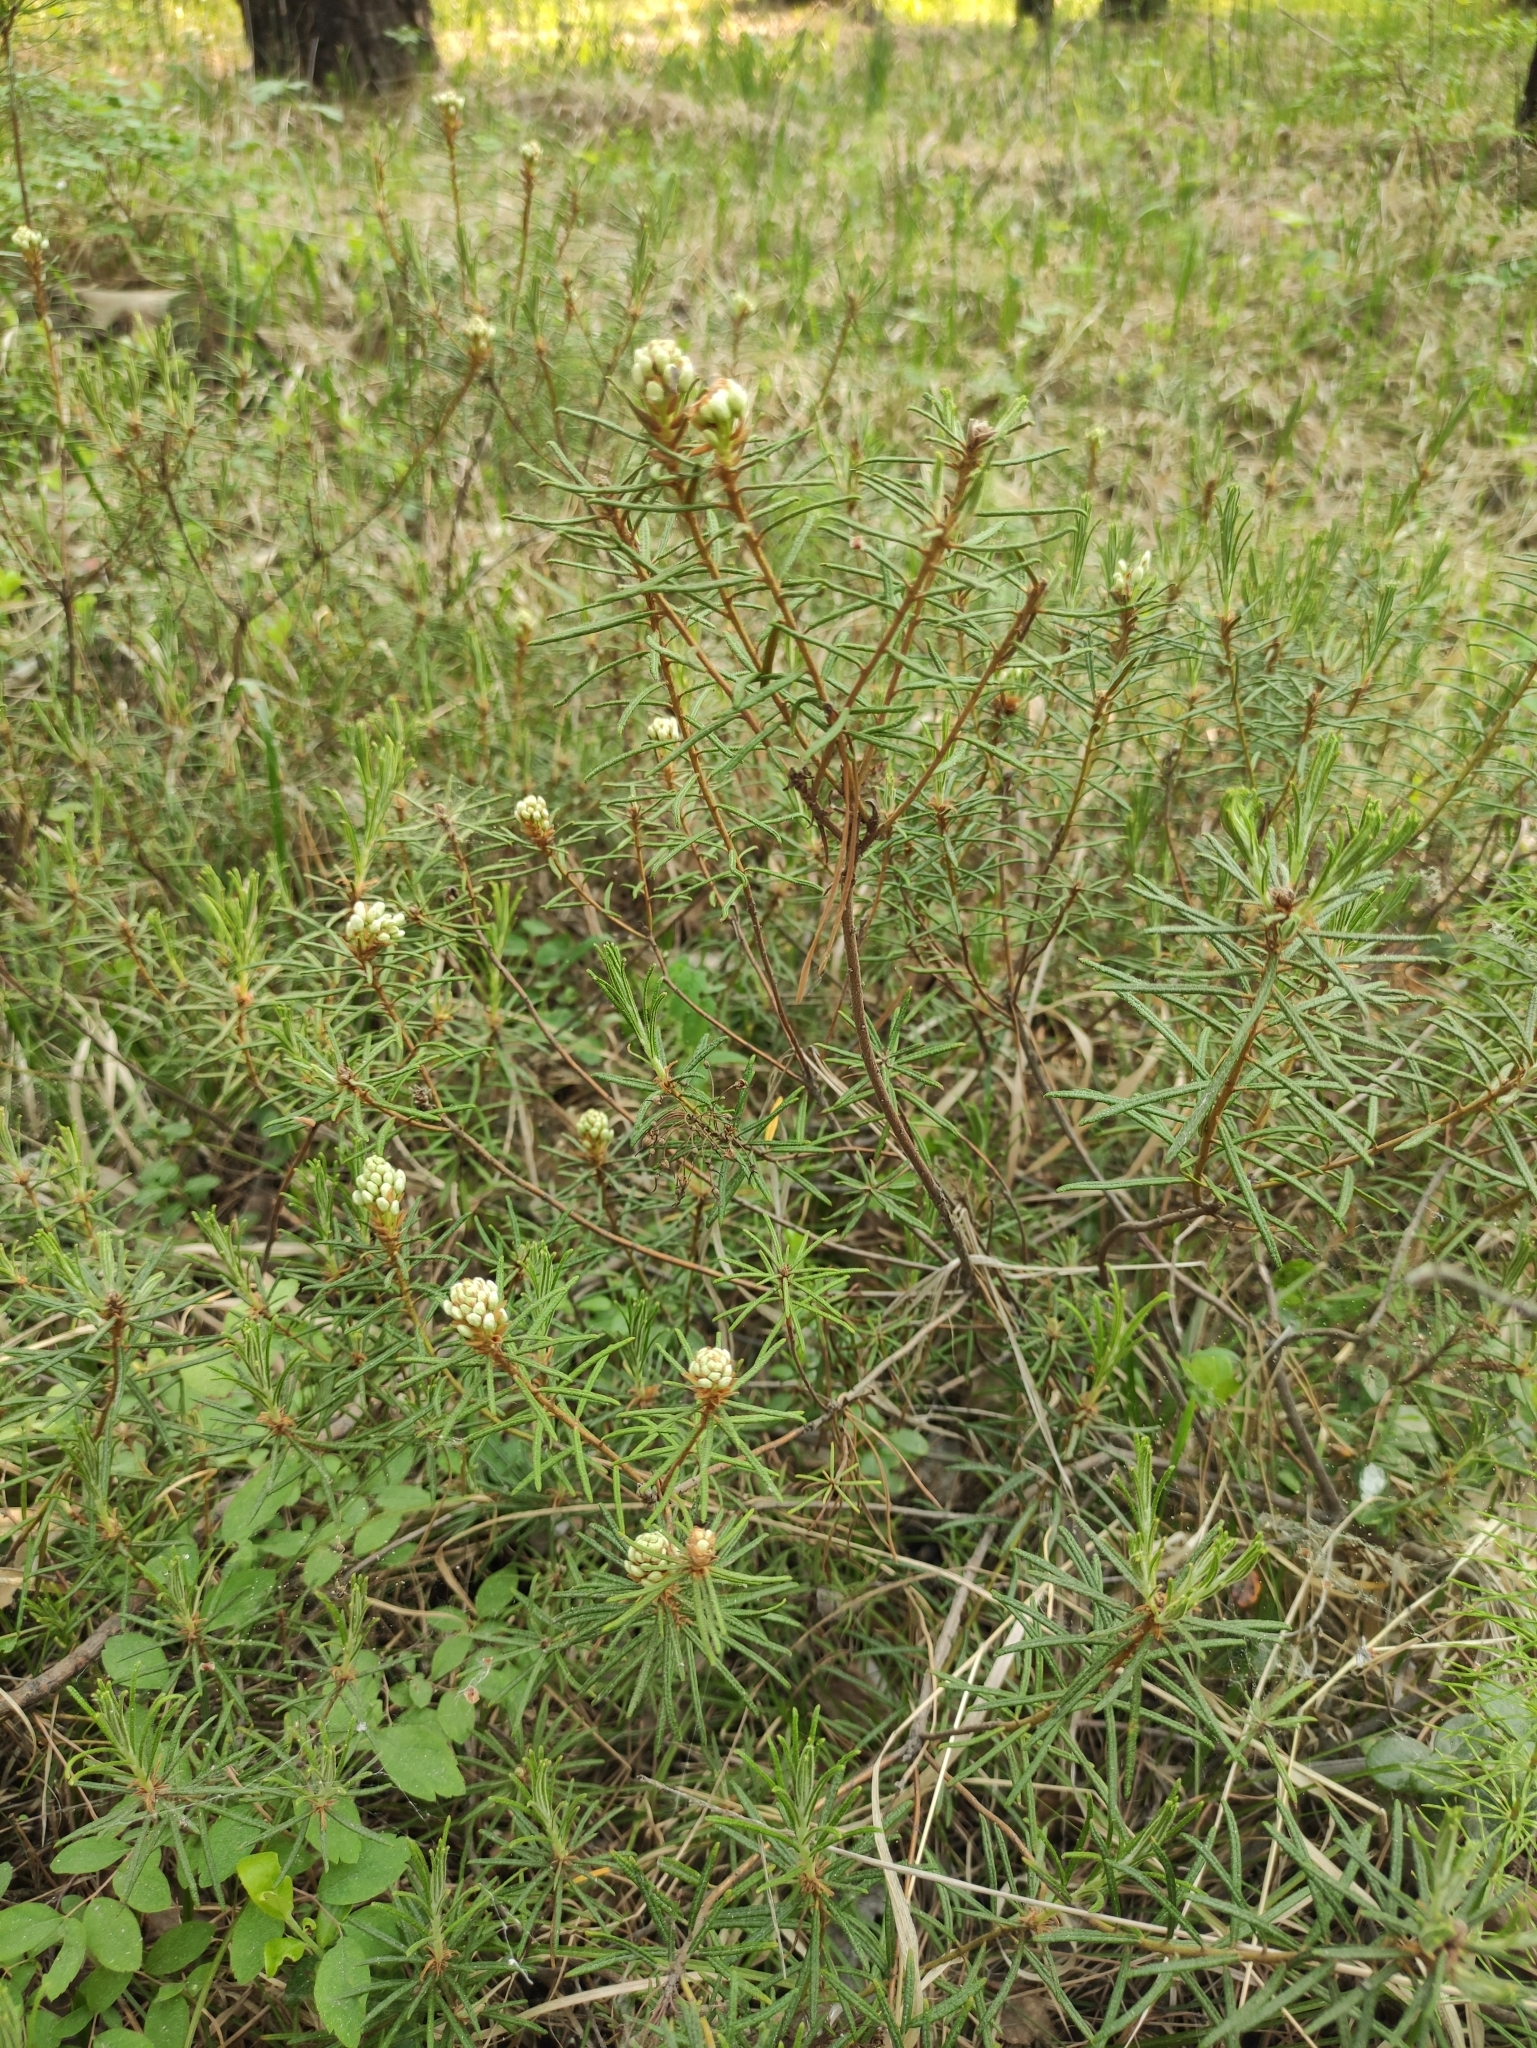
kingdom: Plantae
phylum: Tracheophyta
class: Magnoliopsida
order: Ericales
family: Ericaceae
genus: Rhododendron
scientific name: Rhododendron tomentosum
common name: Marsh labrador tea
